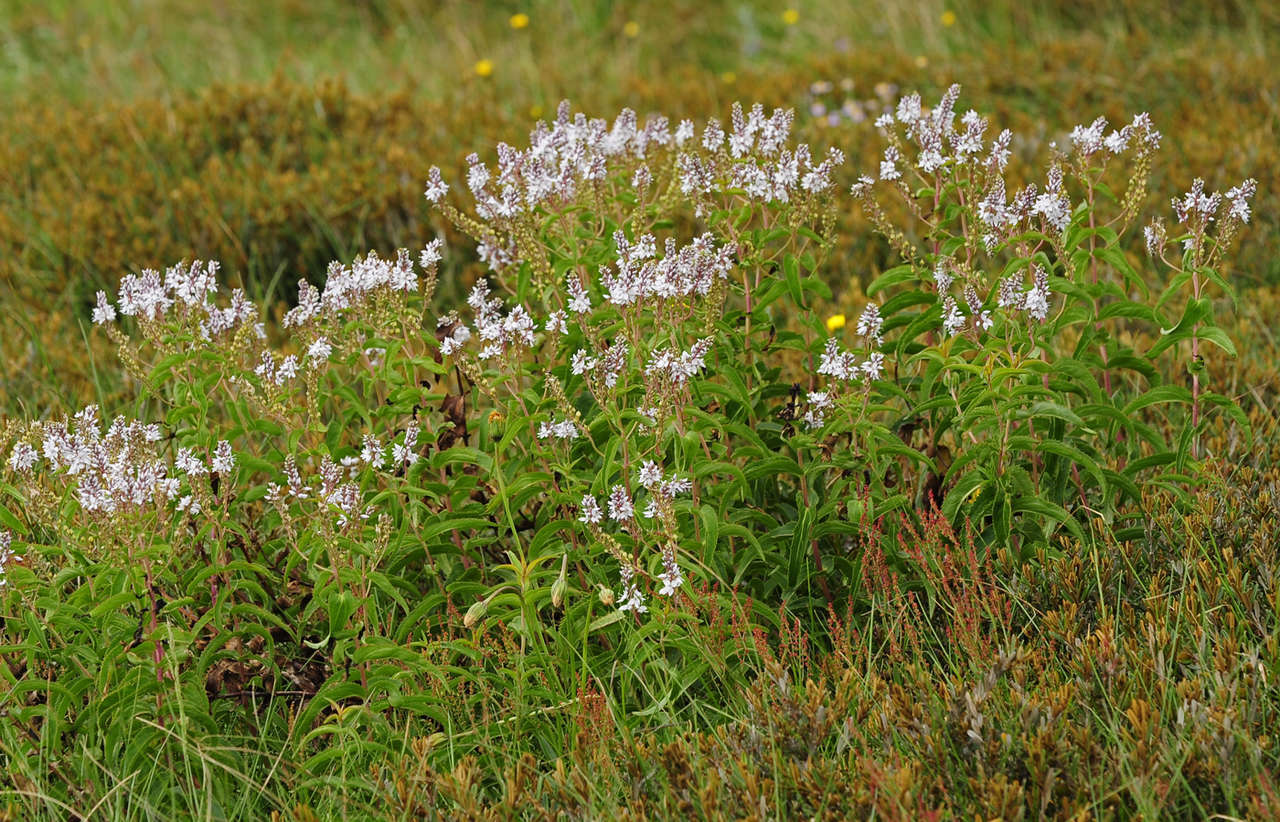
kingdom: Plantae
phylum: Tracheophyta
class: Magnoliopsida
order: Lamiales
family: Plantaginaceae
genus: Veronica
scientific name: Veronica derwentiana
